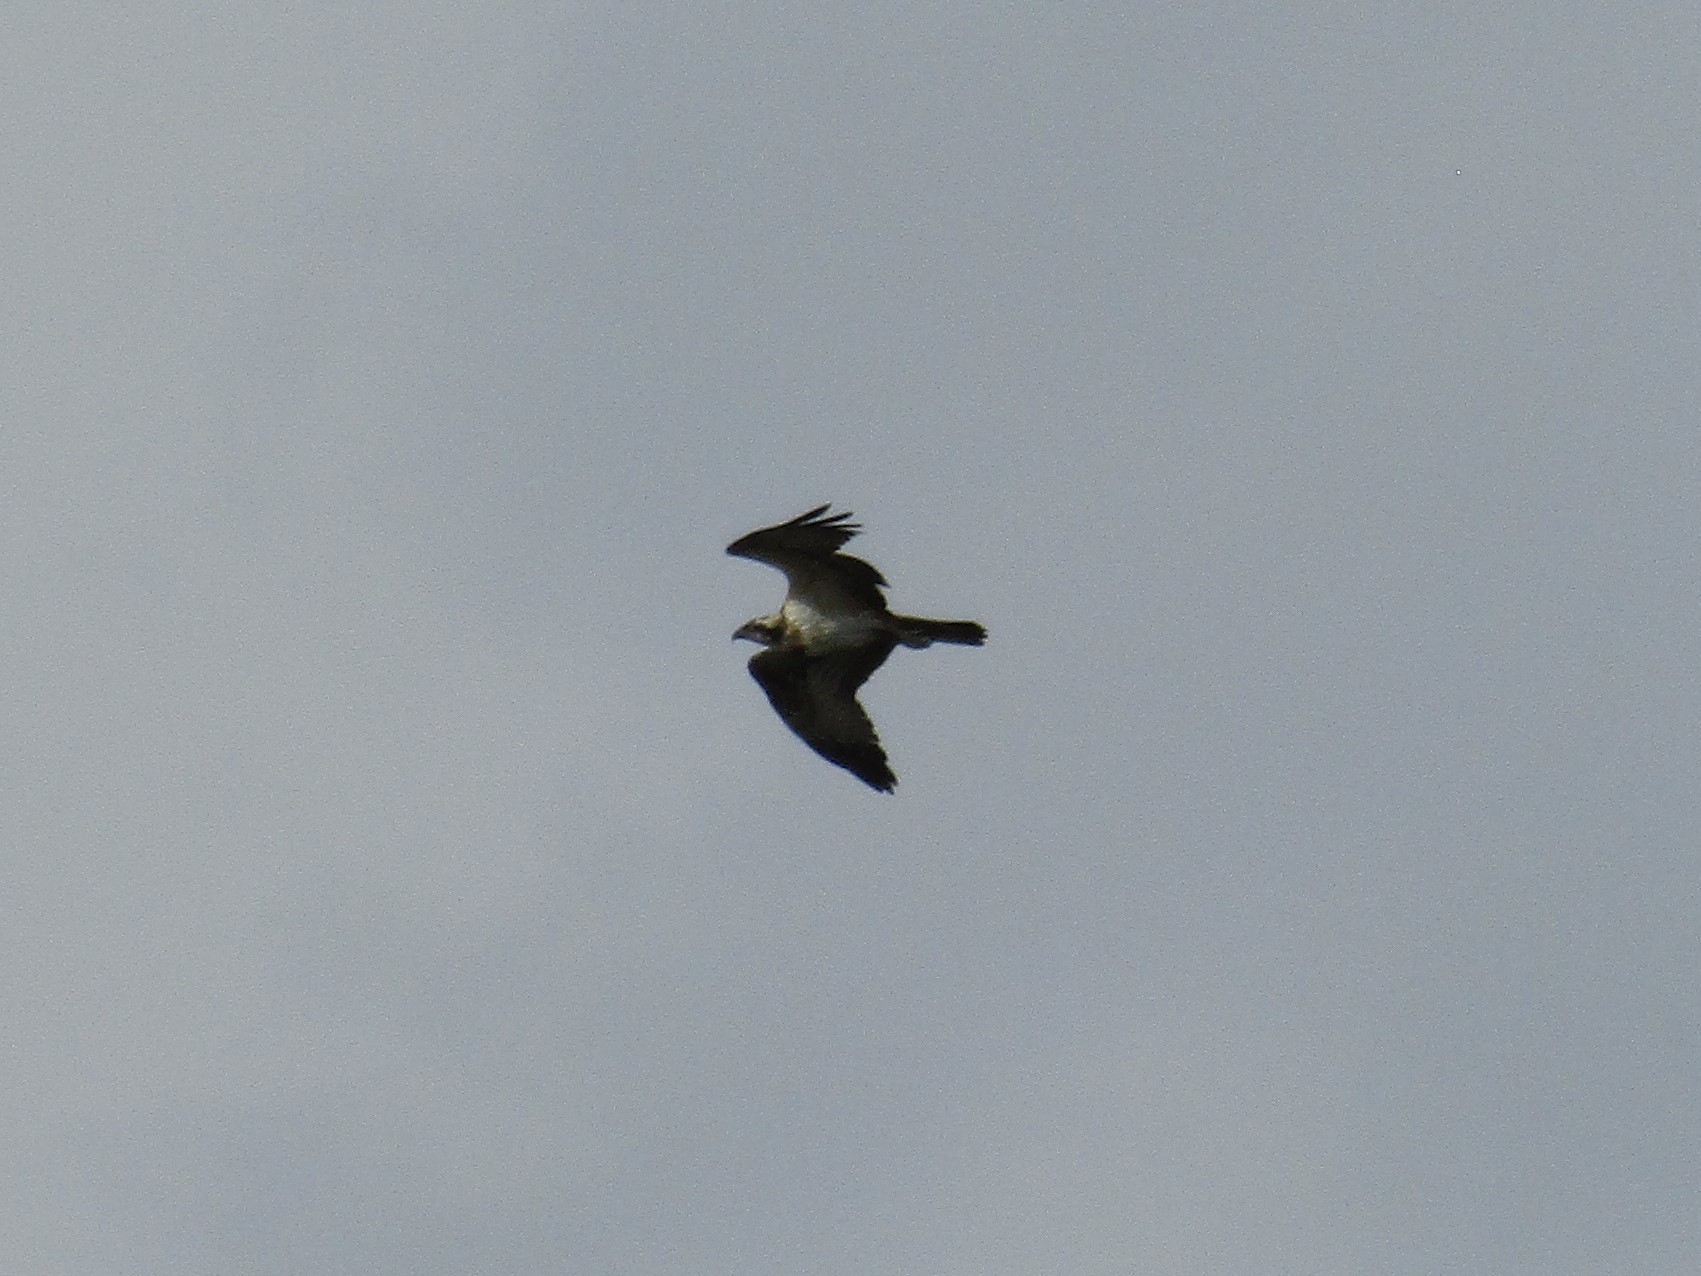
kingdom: Animalia
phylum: Chordata
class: Aves
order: Accipitriformes
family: Pandionidae
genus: Pandion
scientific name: Pandion haliaetus
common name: Osprey
